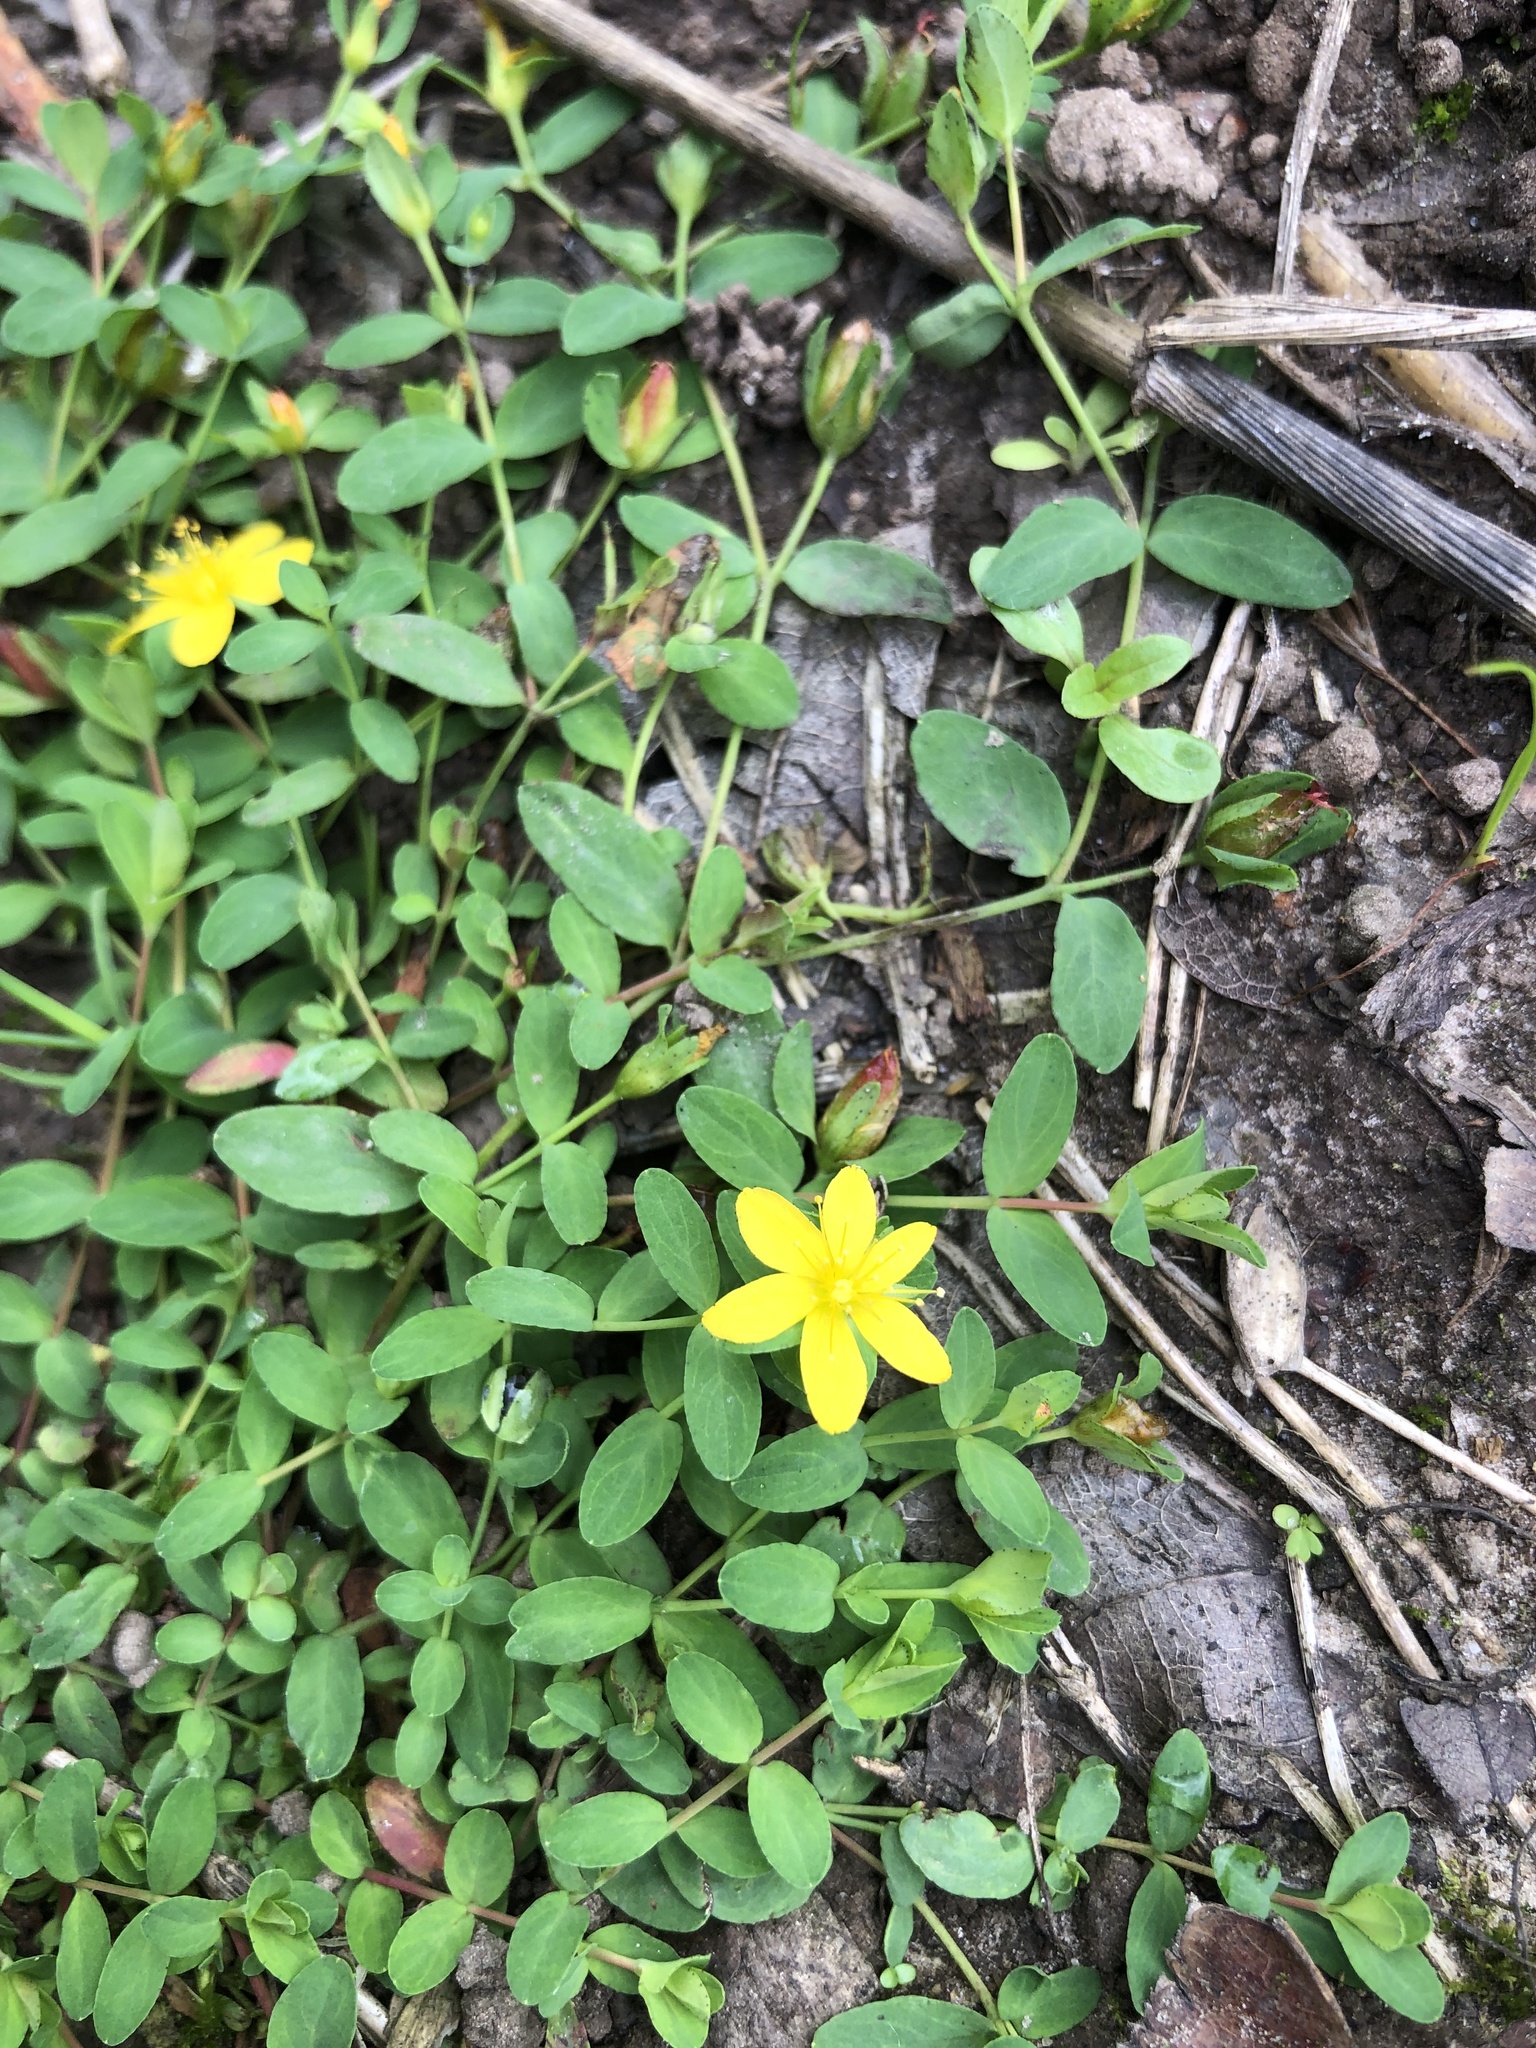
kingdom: Plantae
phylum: Tracheophyta
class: Magnoliopsida
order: Malpighiales
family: Hypericaceae
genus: Hypericum
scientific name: Hypericum humifusum
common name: Trailing st. john's-wort
